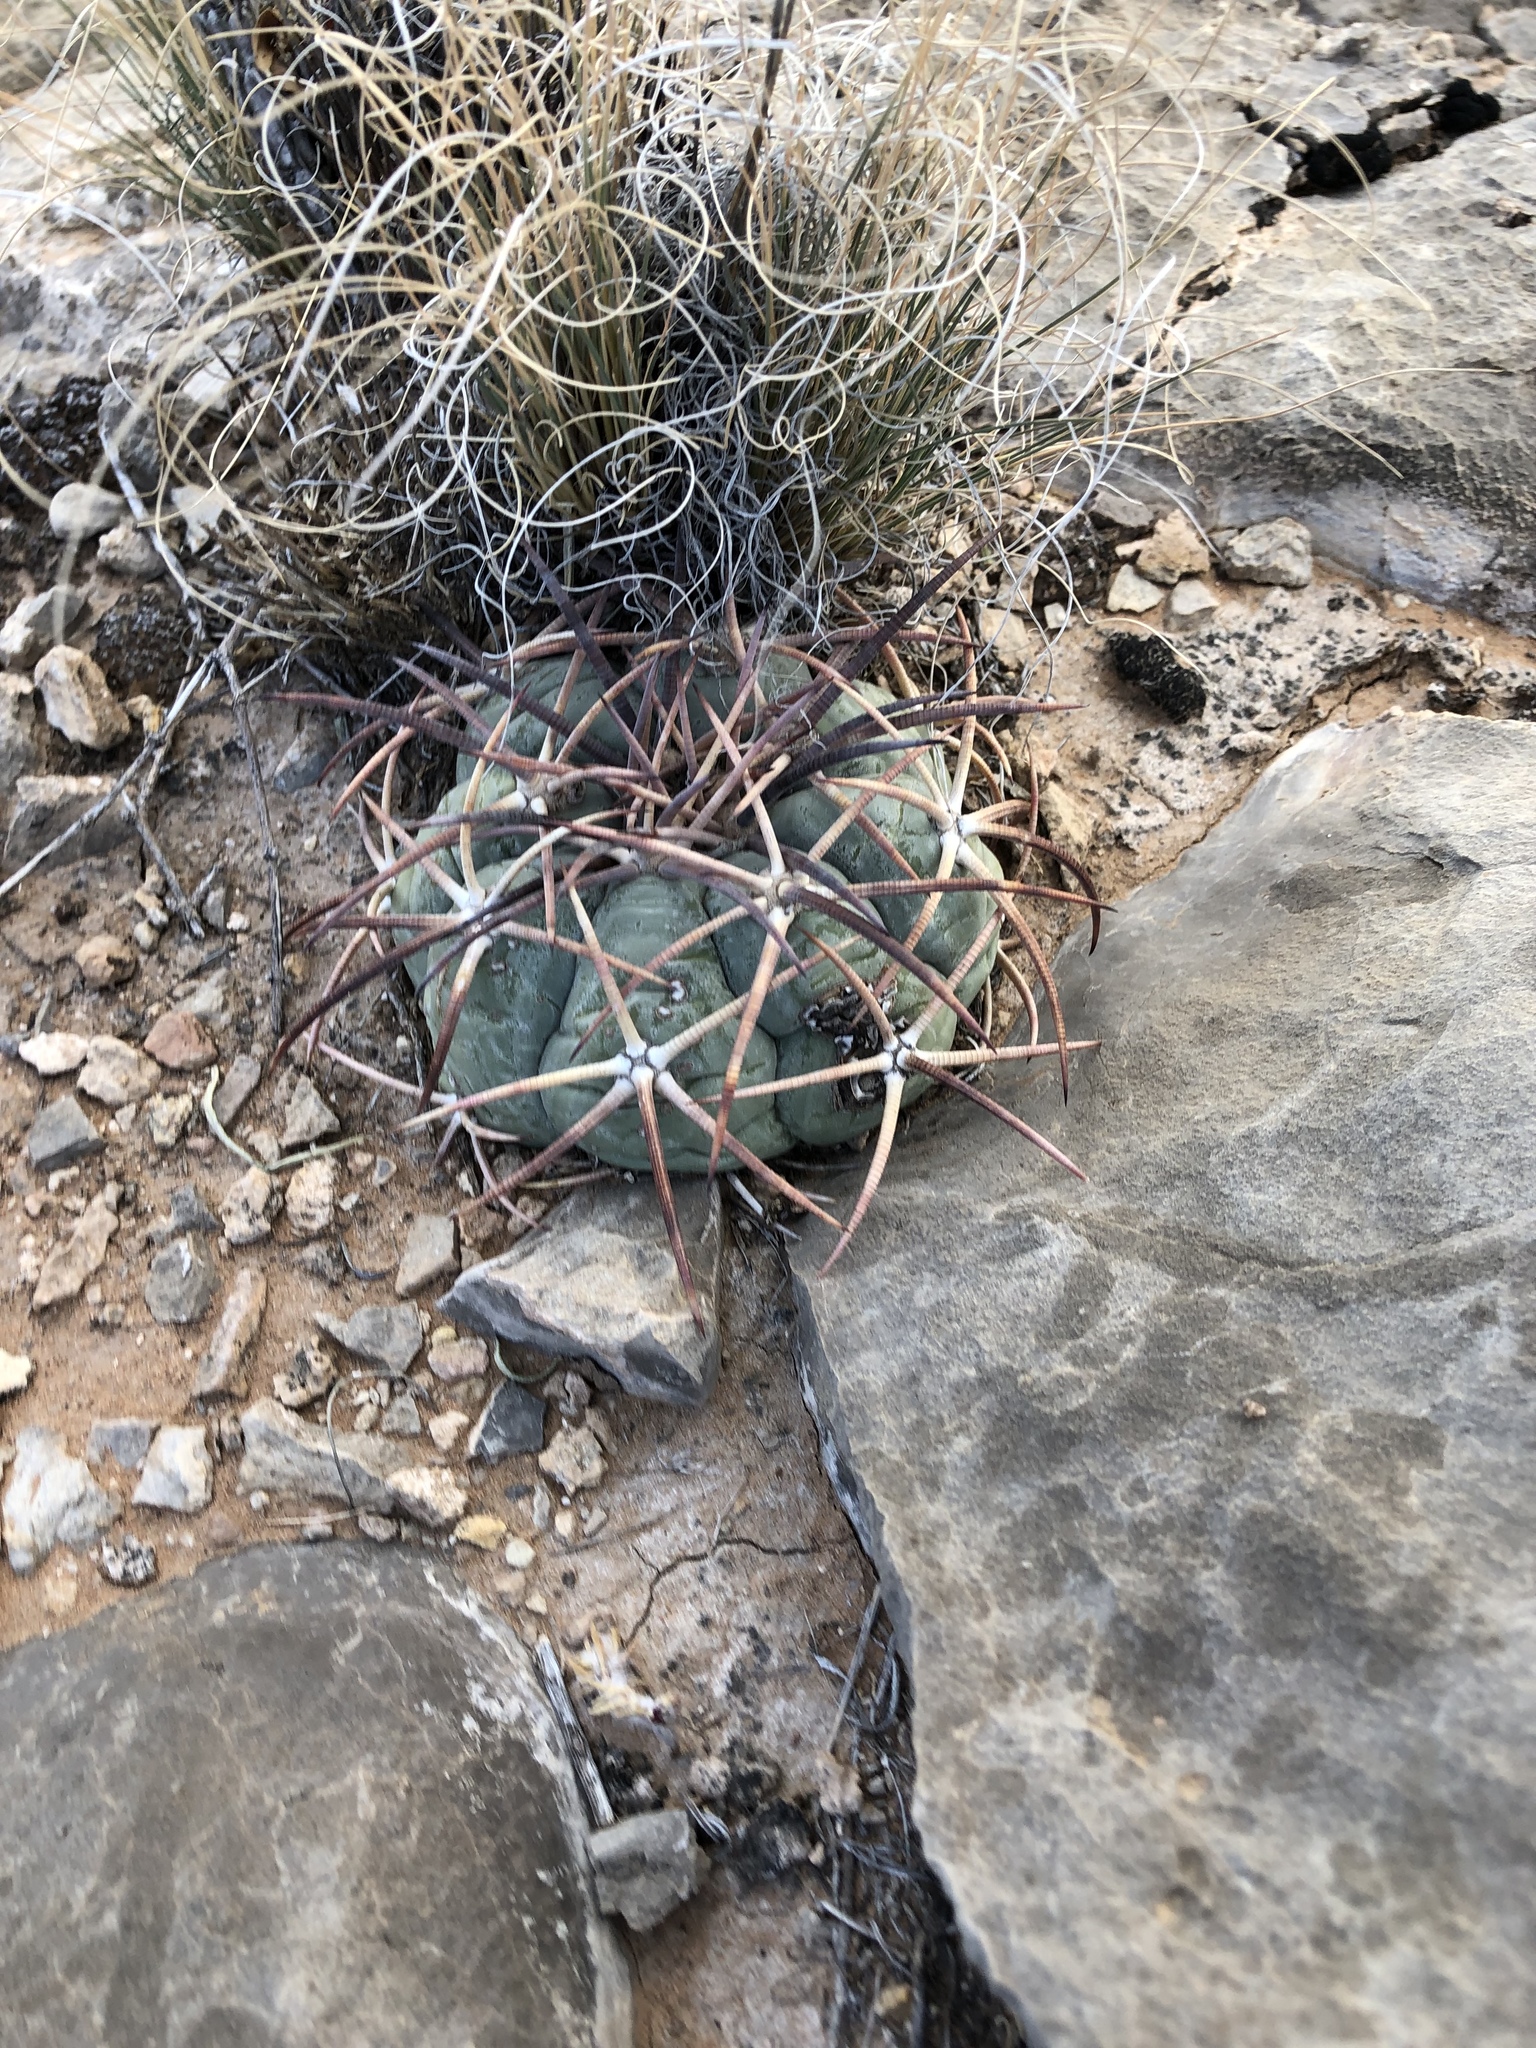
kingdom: Plantae
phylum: Tracheophyta
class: Magnoliopsida
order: Caryophyllales
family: Cactaceae
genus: Echinocactus
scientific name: Echinocactus horizonthalonius
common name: Devilshead
